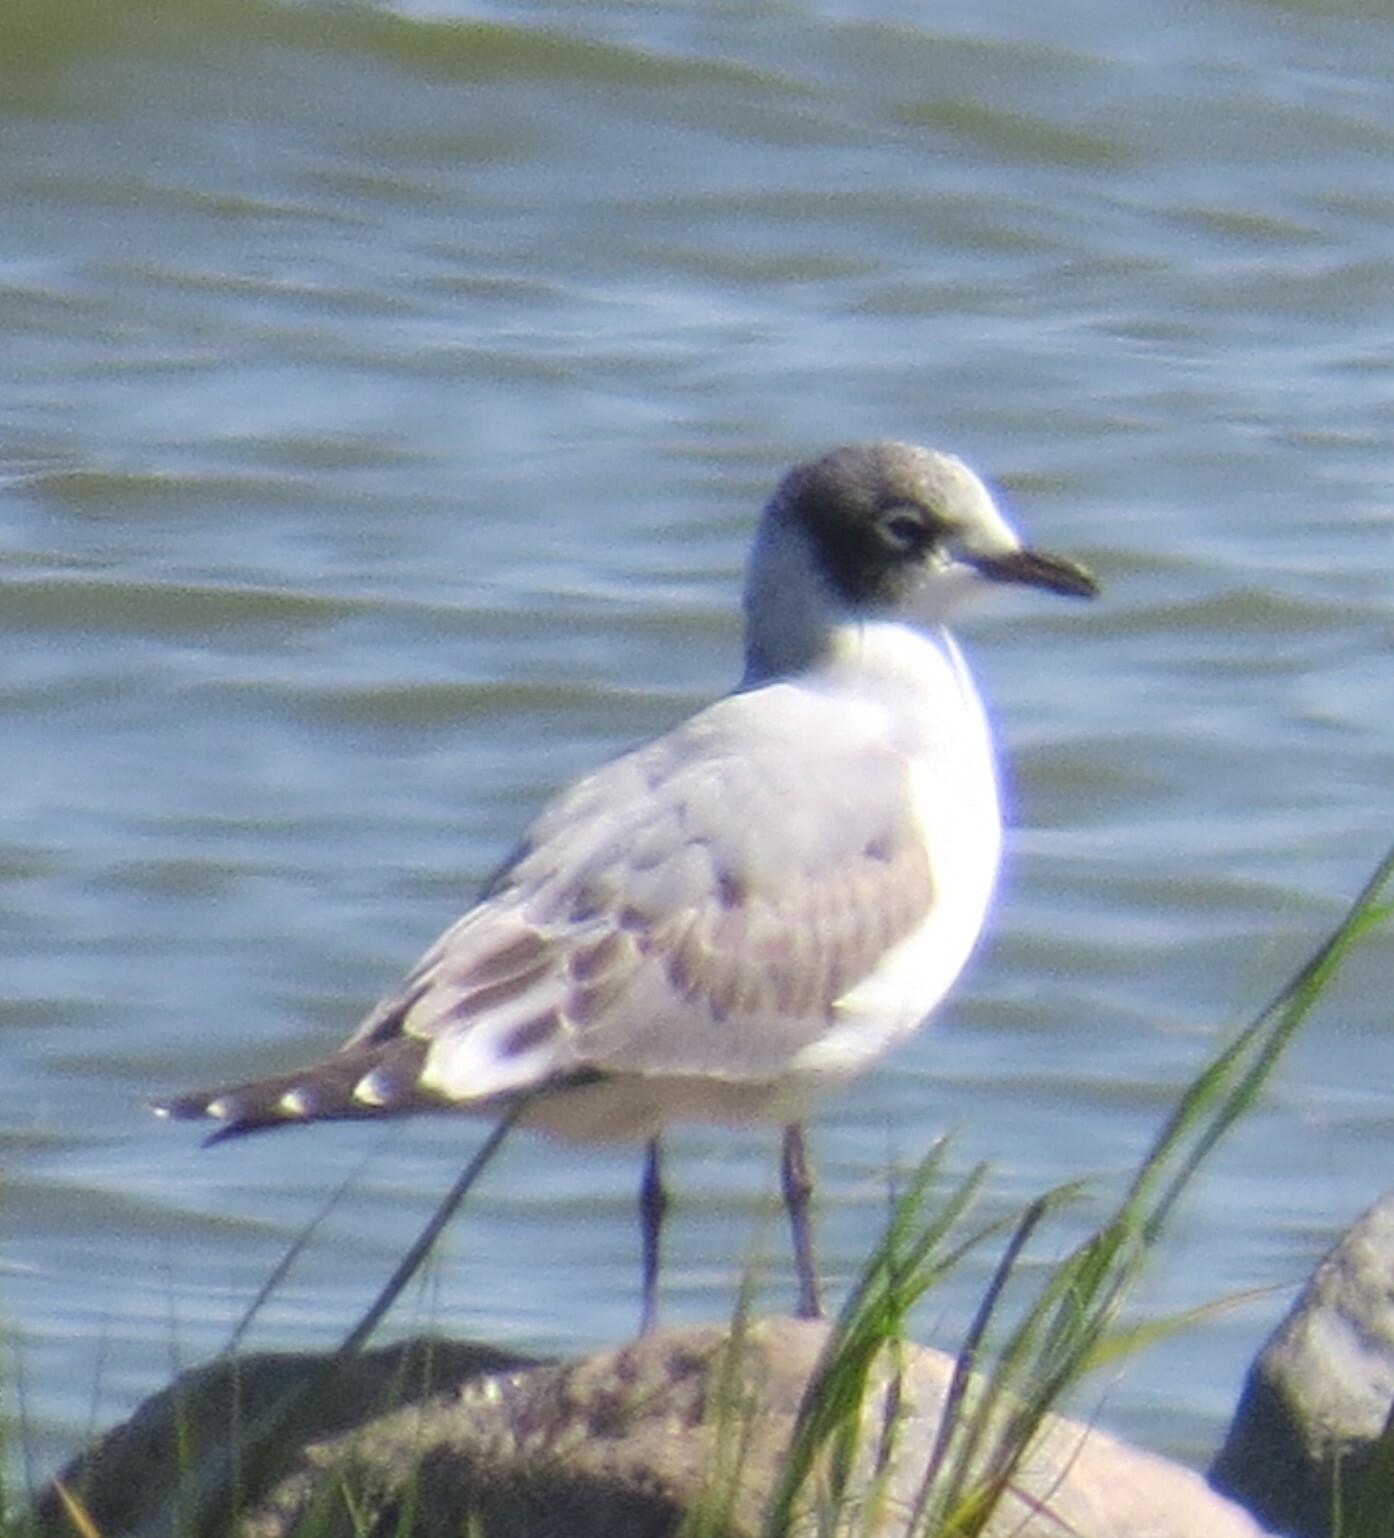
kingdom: Animalia
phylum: Chordata
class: Aves
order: Charadriiformes
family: Laridae
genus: Leucophaeus
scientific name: Leucophaeus pipixcan
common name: Franklin's gull
